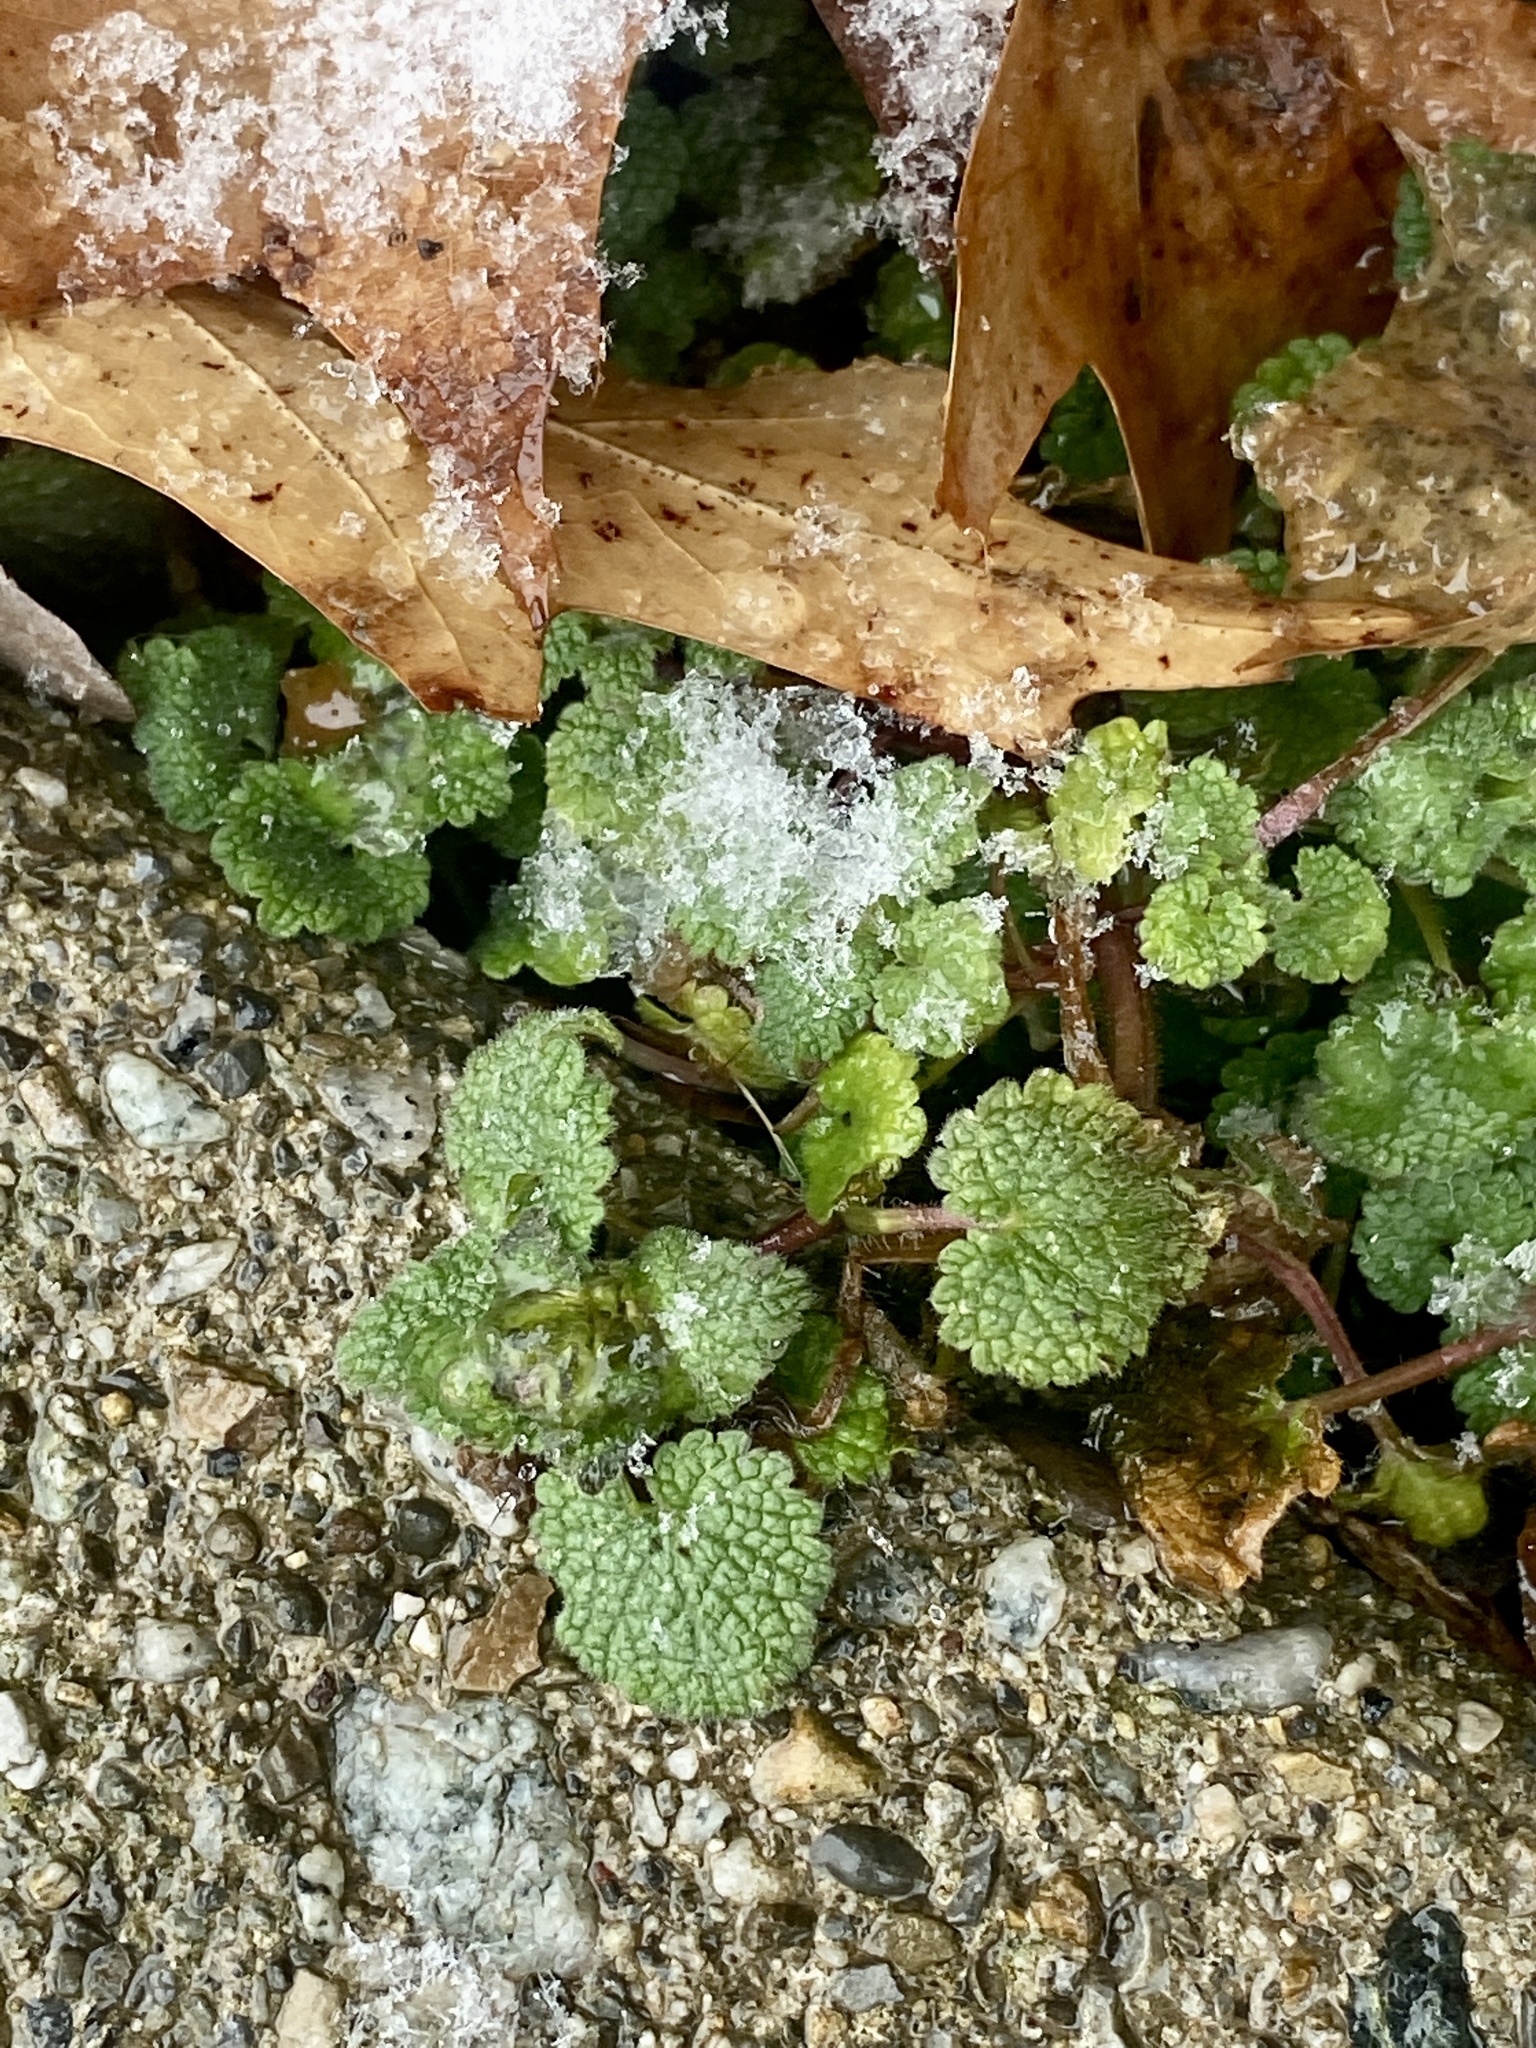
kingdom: Plantae
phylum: Tracheophyta
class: Magnoliopsida
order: Lamiales
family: Lamiaceae
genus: Lamium
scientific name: Lamium purpureum
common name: Red dead-nettle
